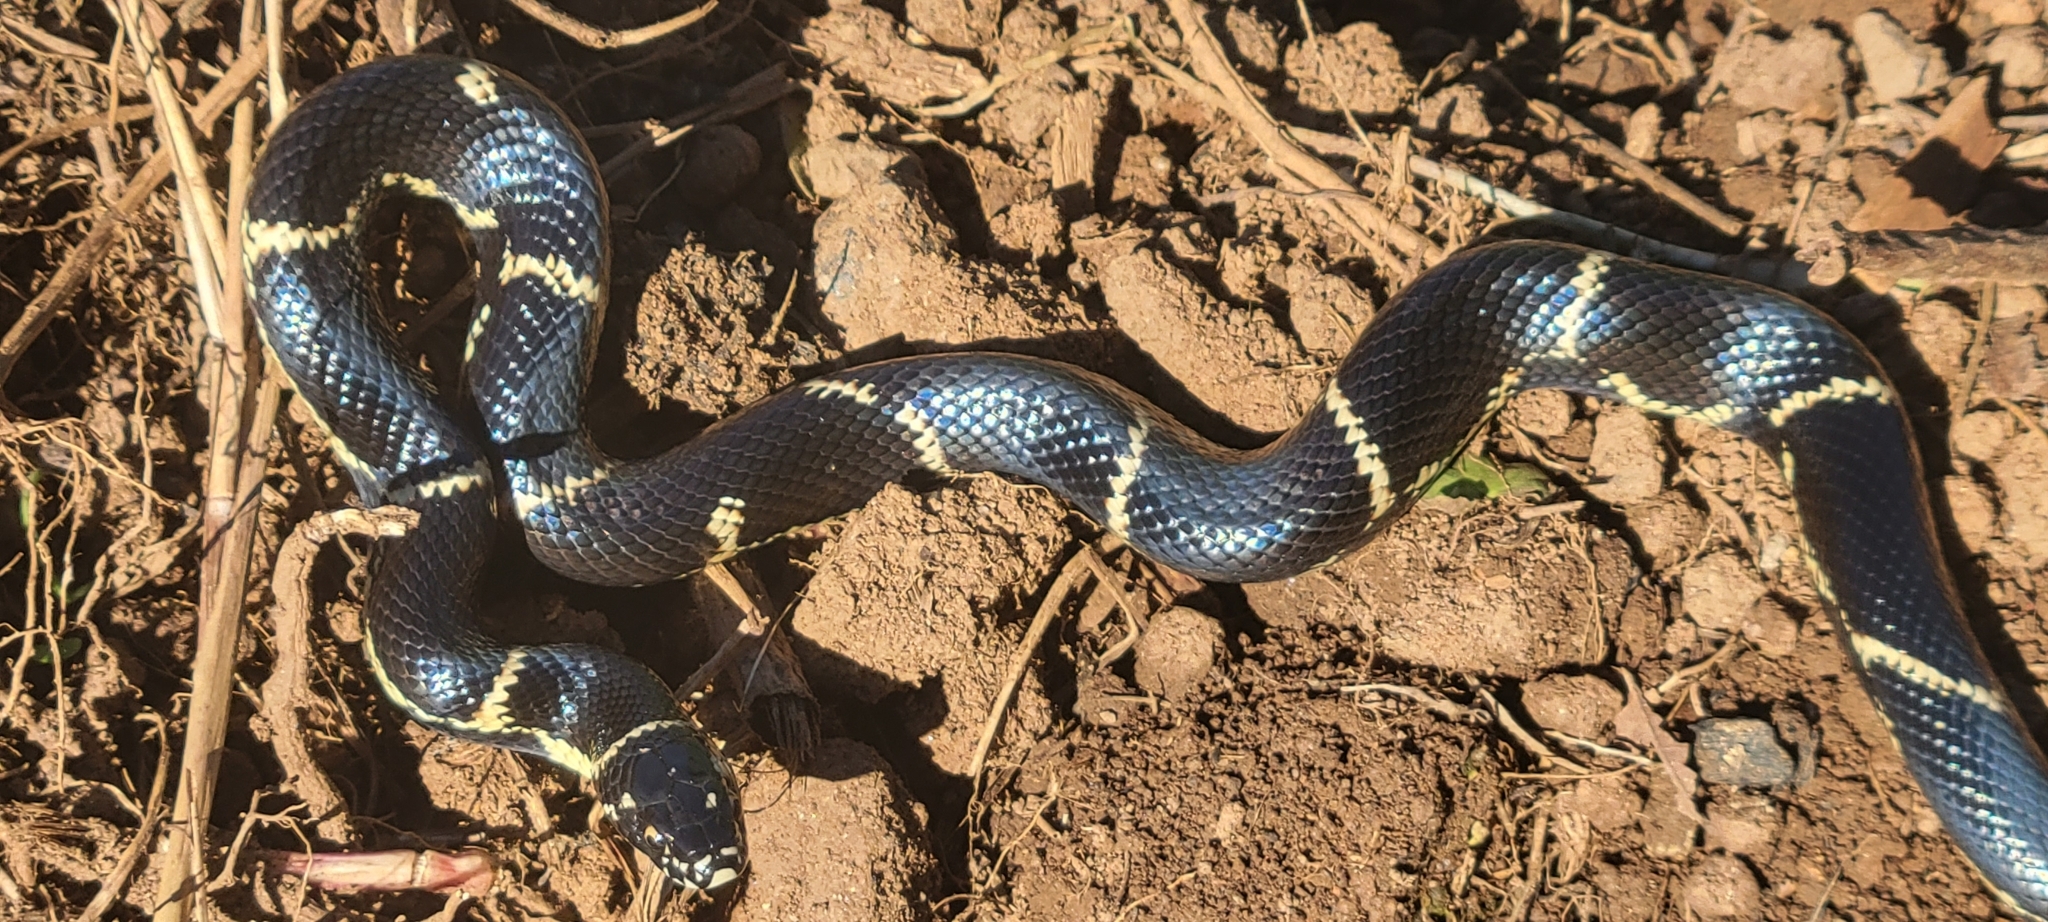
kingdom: Animalia
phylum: Chordata
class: Squamata
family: Colubridae
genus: Lampropeltis
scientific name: Lampropeltis getula
